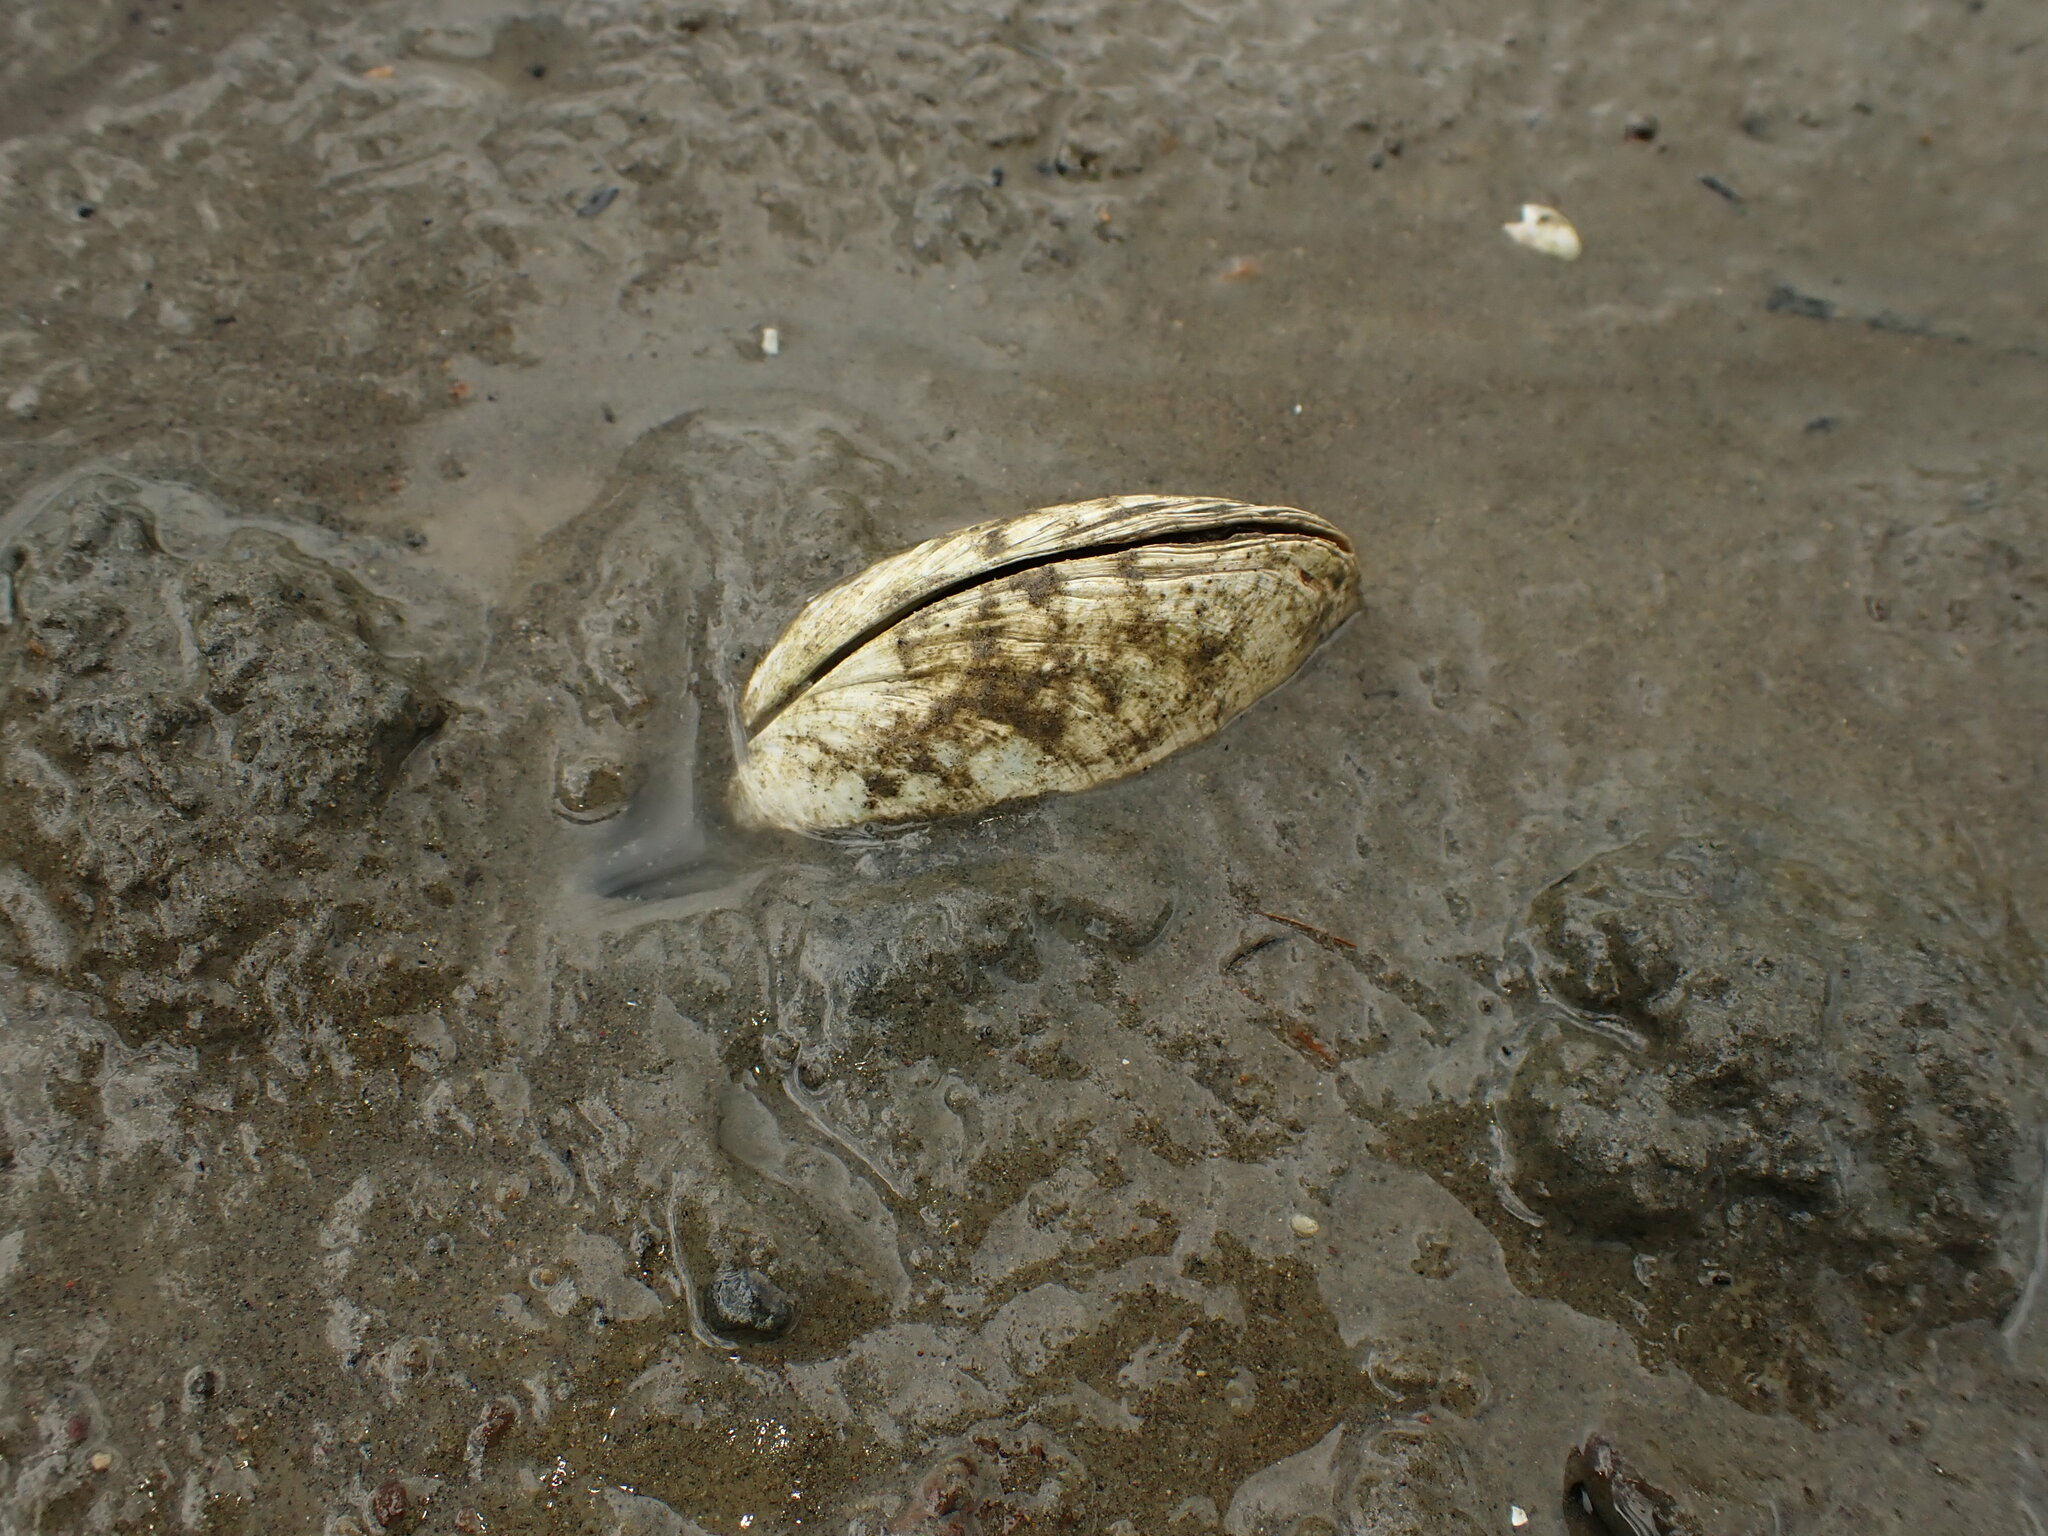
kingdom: Animalia
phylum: Mollusca
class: Bivalvia
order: Venerida
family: Mactridae
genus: Cyclomactra
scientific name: Cyclomactra ovata
